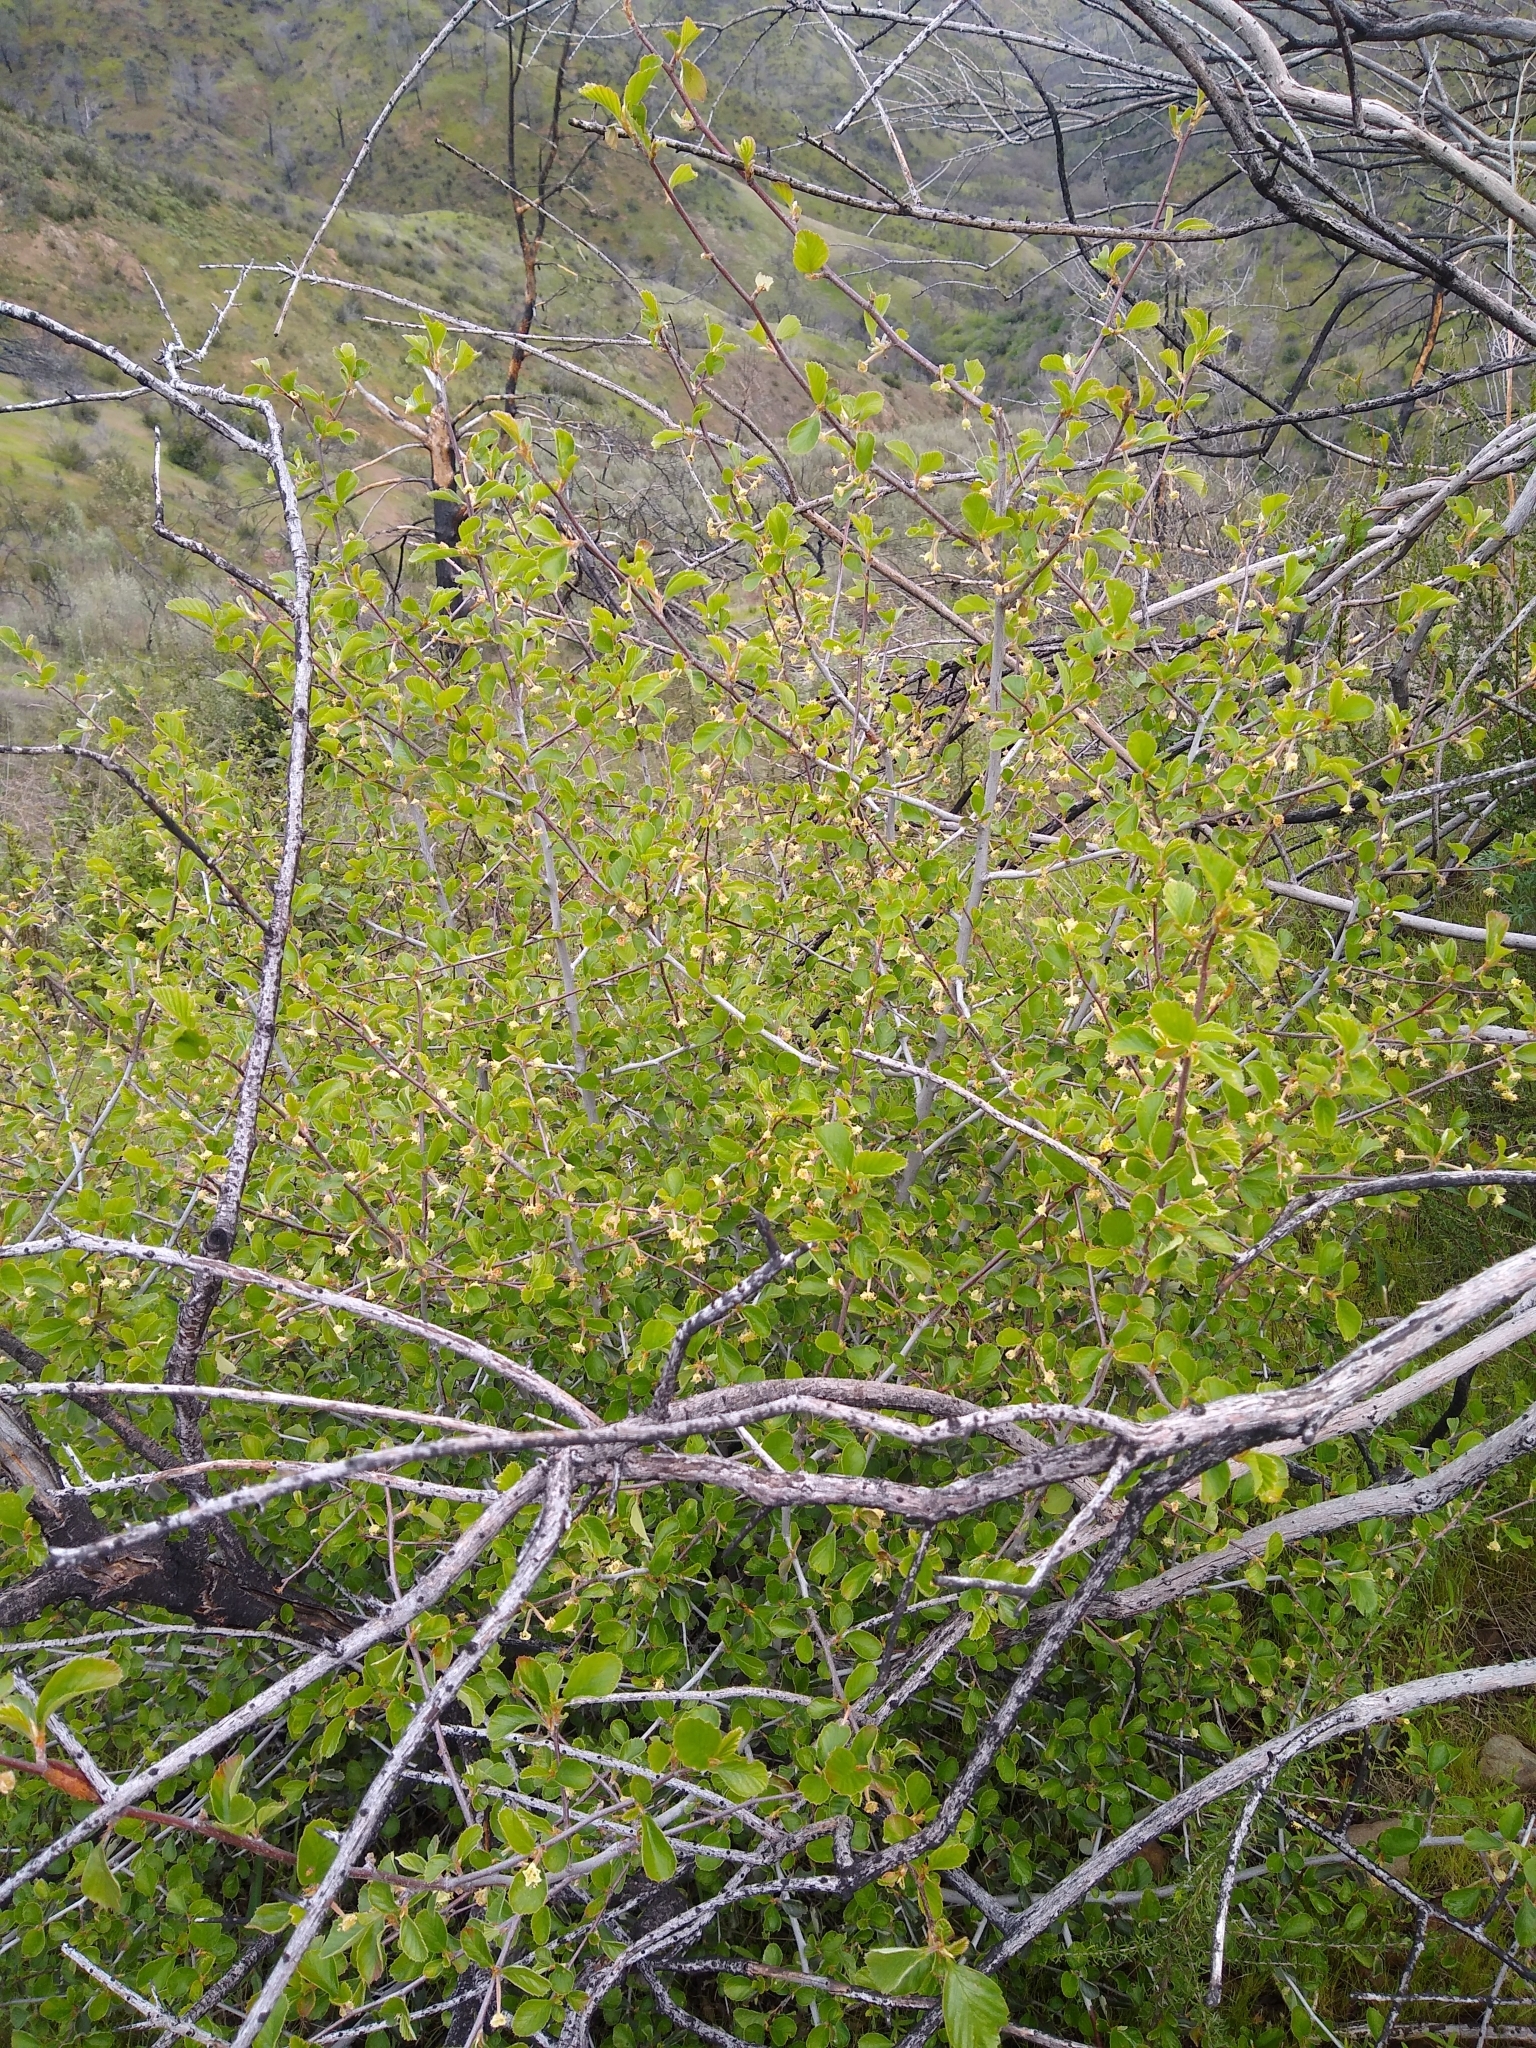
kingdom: Plantae
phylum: Tracheophyta
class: Magnoliopsida
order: Rosales
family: Rosaceae
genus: Cercocarpus
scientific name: Cercocarpus betuloides
